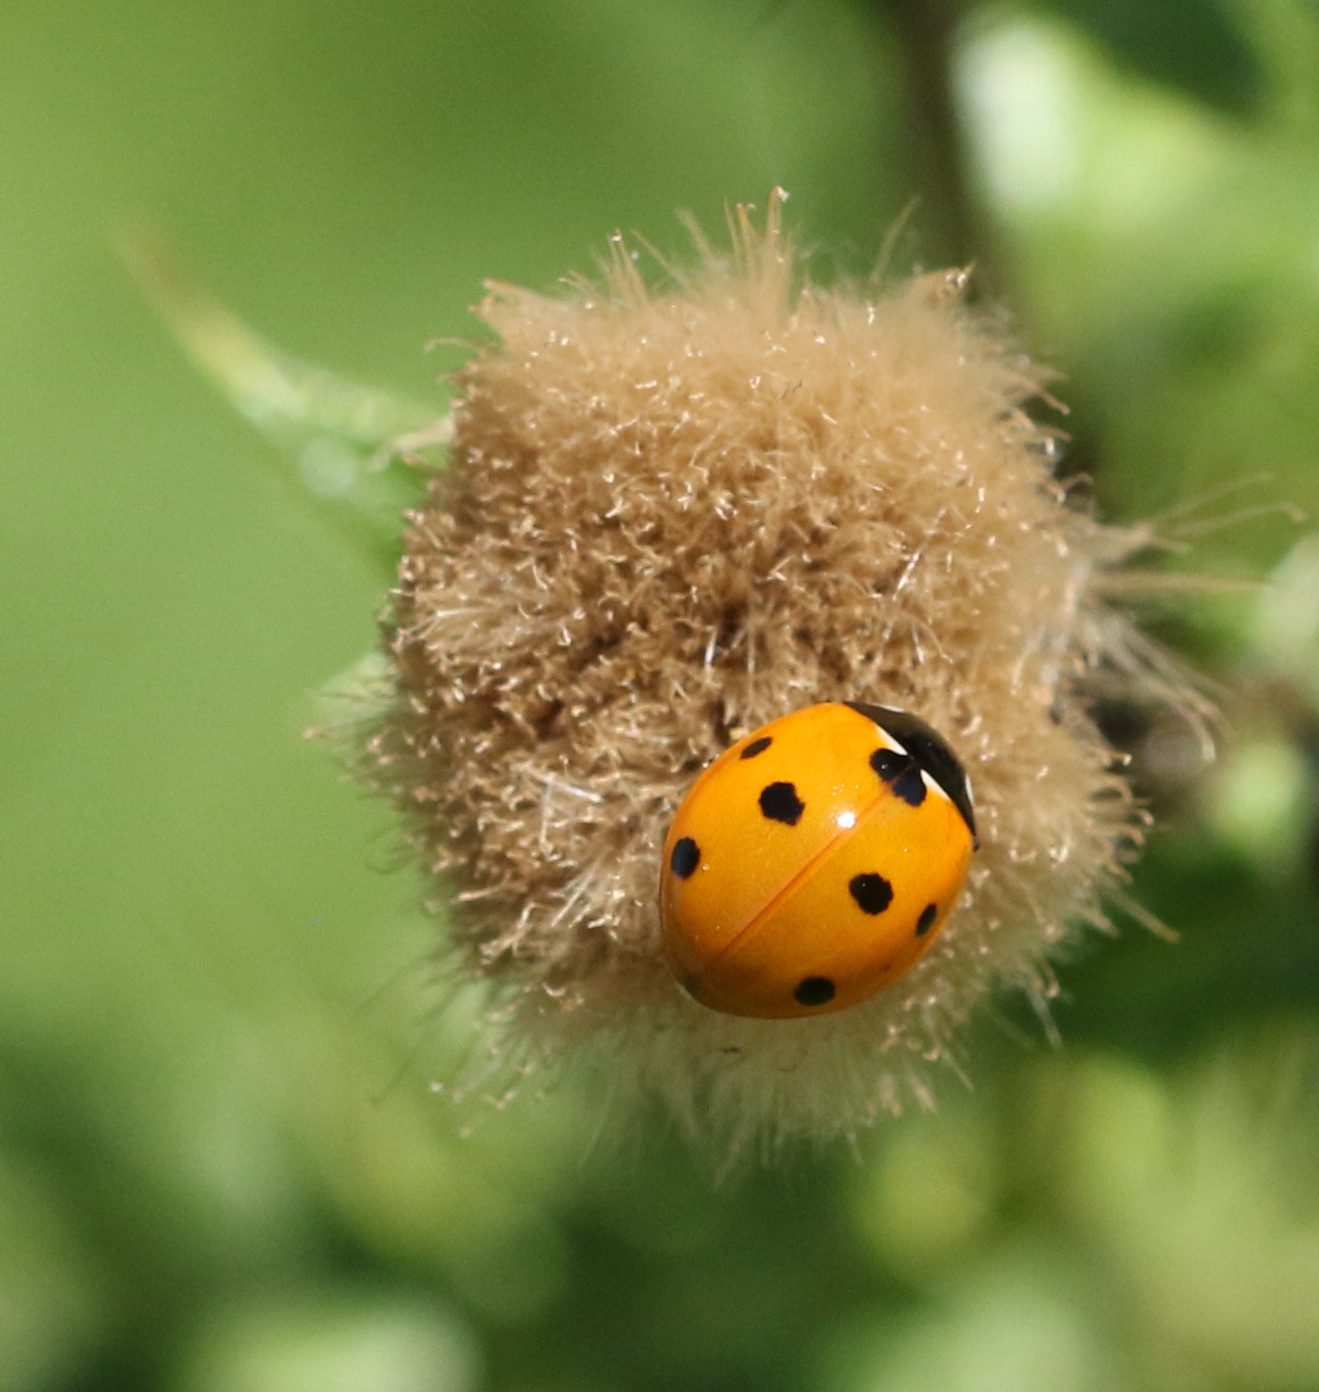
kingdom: Animalia
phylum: Arthropoda
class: Insecta
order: Coleoptera
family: Coccinellidae
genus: Coccinella
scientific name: Coccinella septempunctata
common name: Sevenspotted lady beetle
